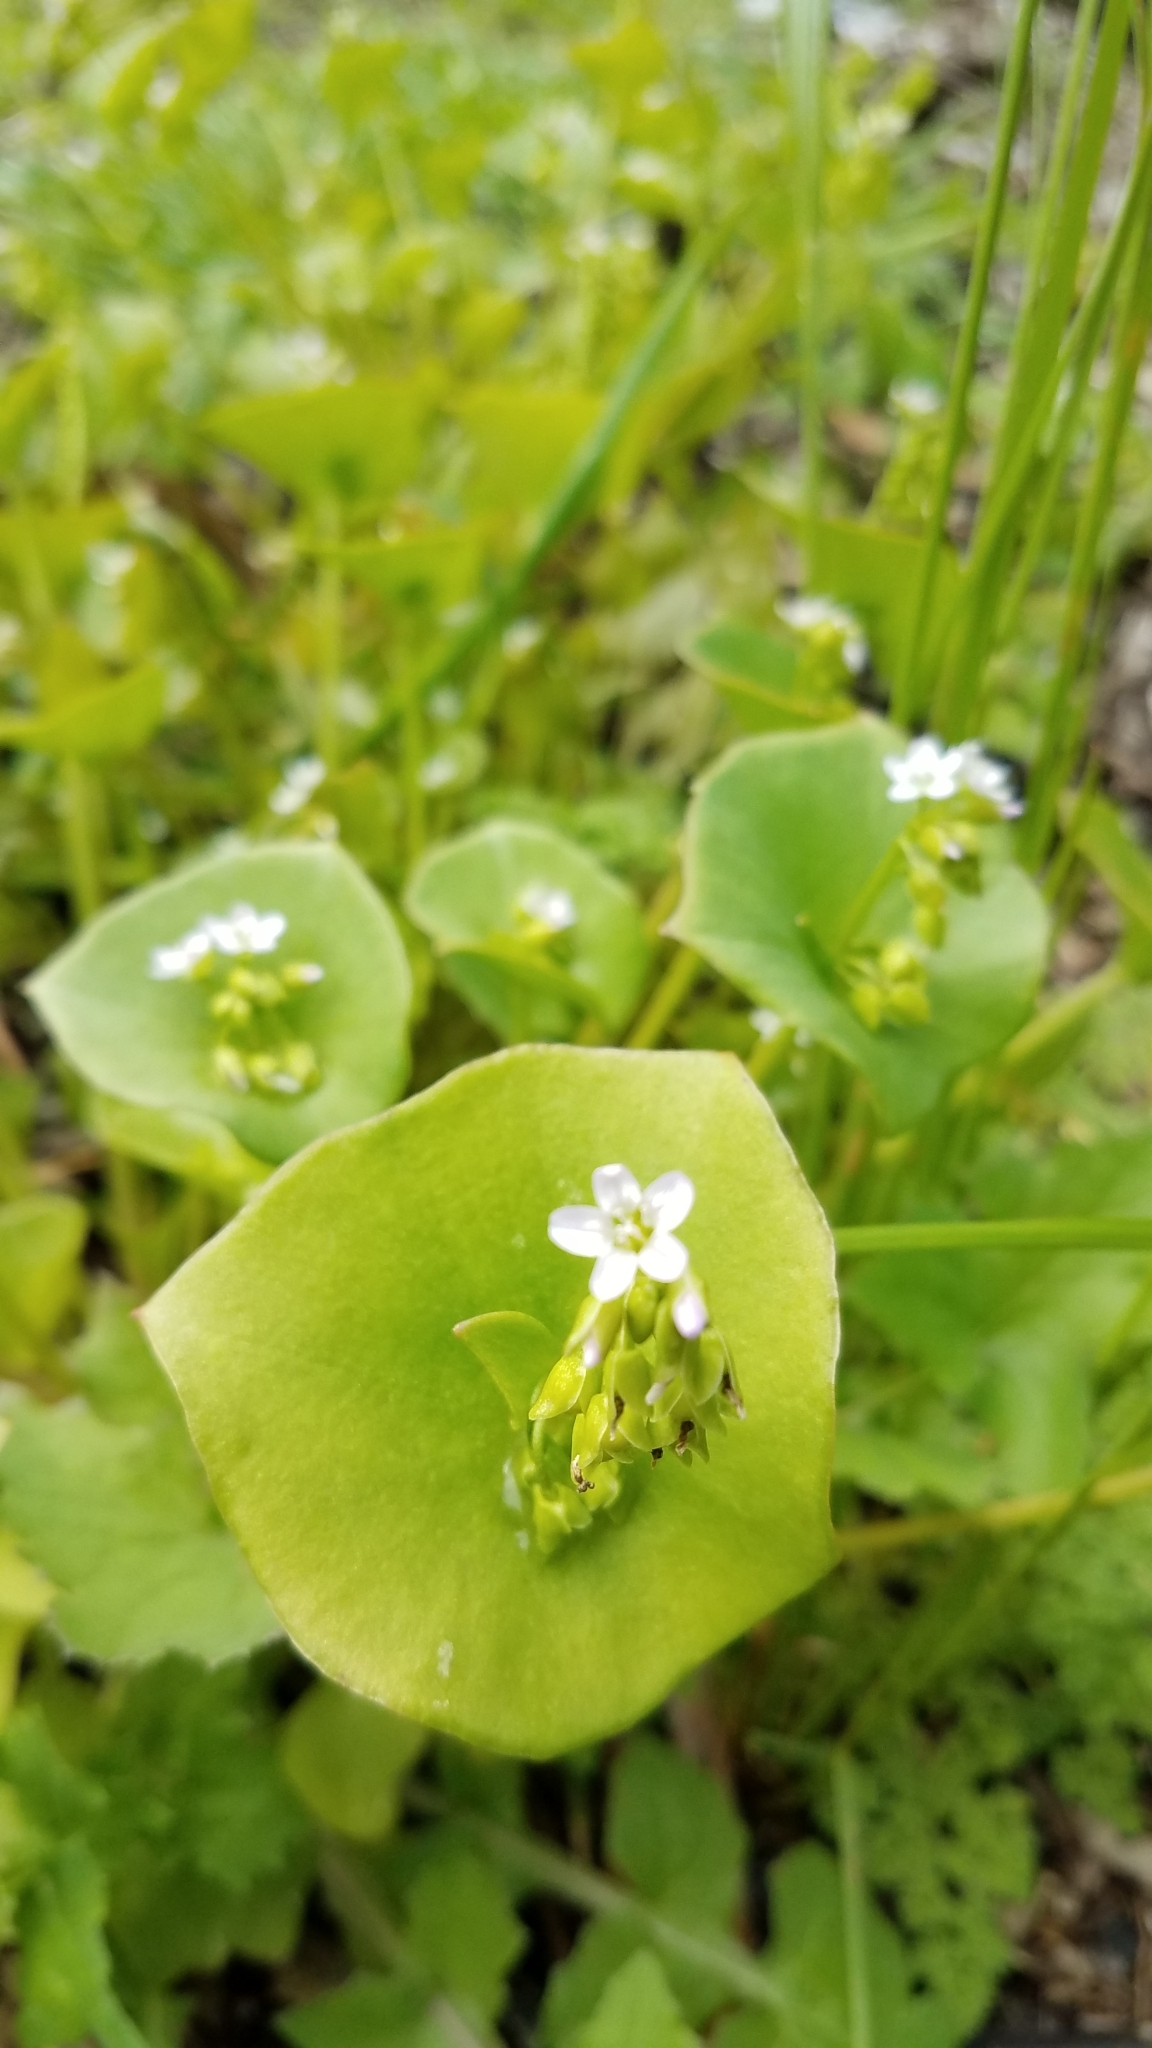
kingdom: Plantae
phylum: Tracheophyta
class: Magnoliopsida
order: Caryophyllales
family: Montiaceae
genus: Claytonia
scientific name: Claytonia perfoliata
